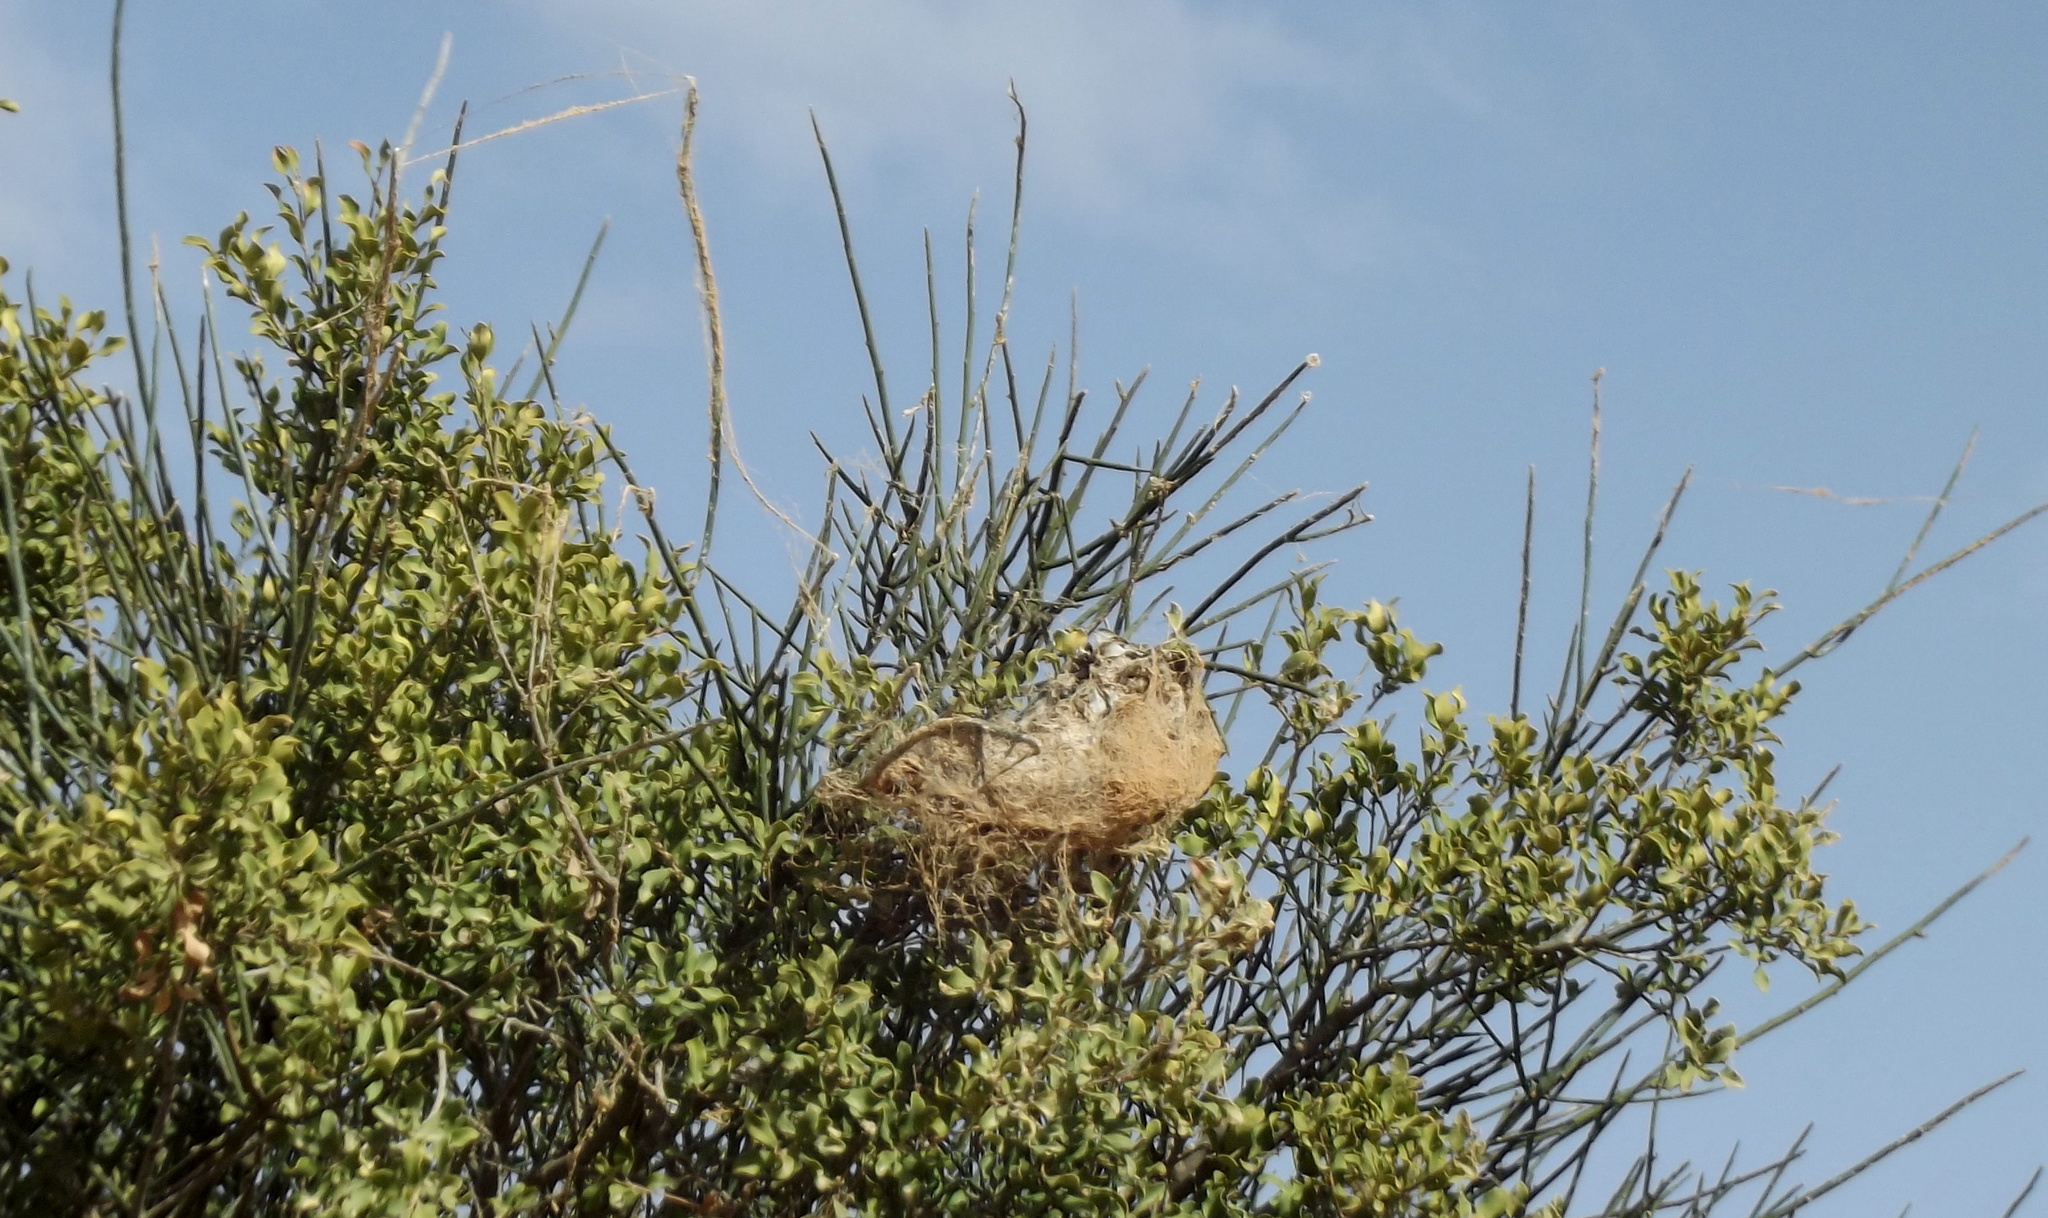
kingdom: Animalia
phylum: Arthropoda
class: Arachnida
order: Araneae
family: Eresidae
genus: Stegodyphus
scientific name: Stegodyphus dumicola
